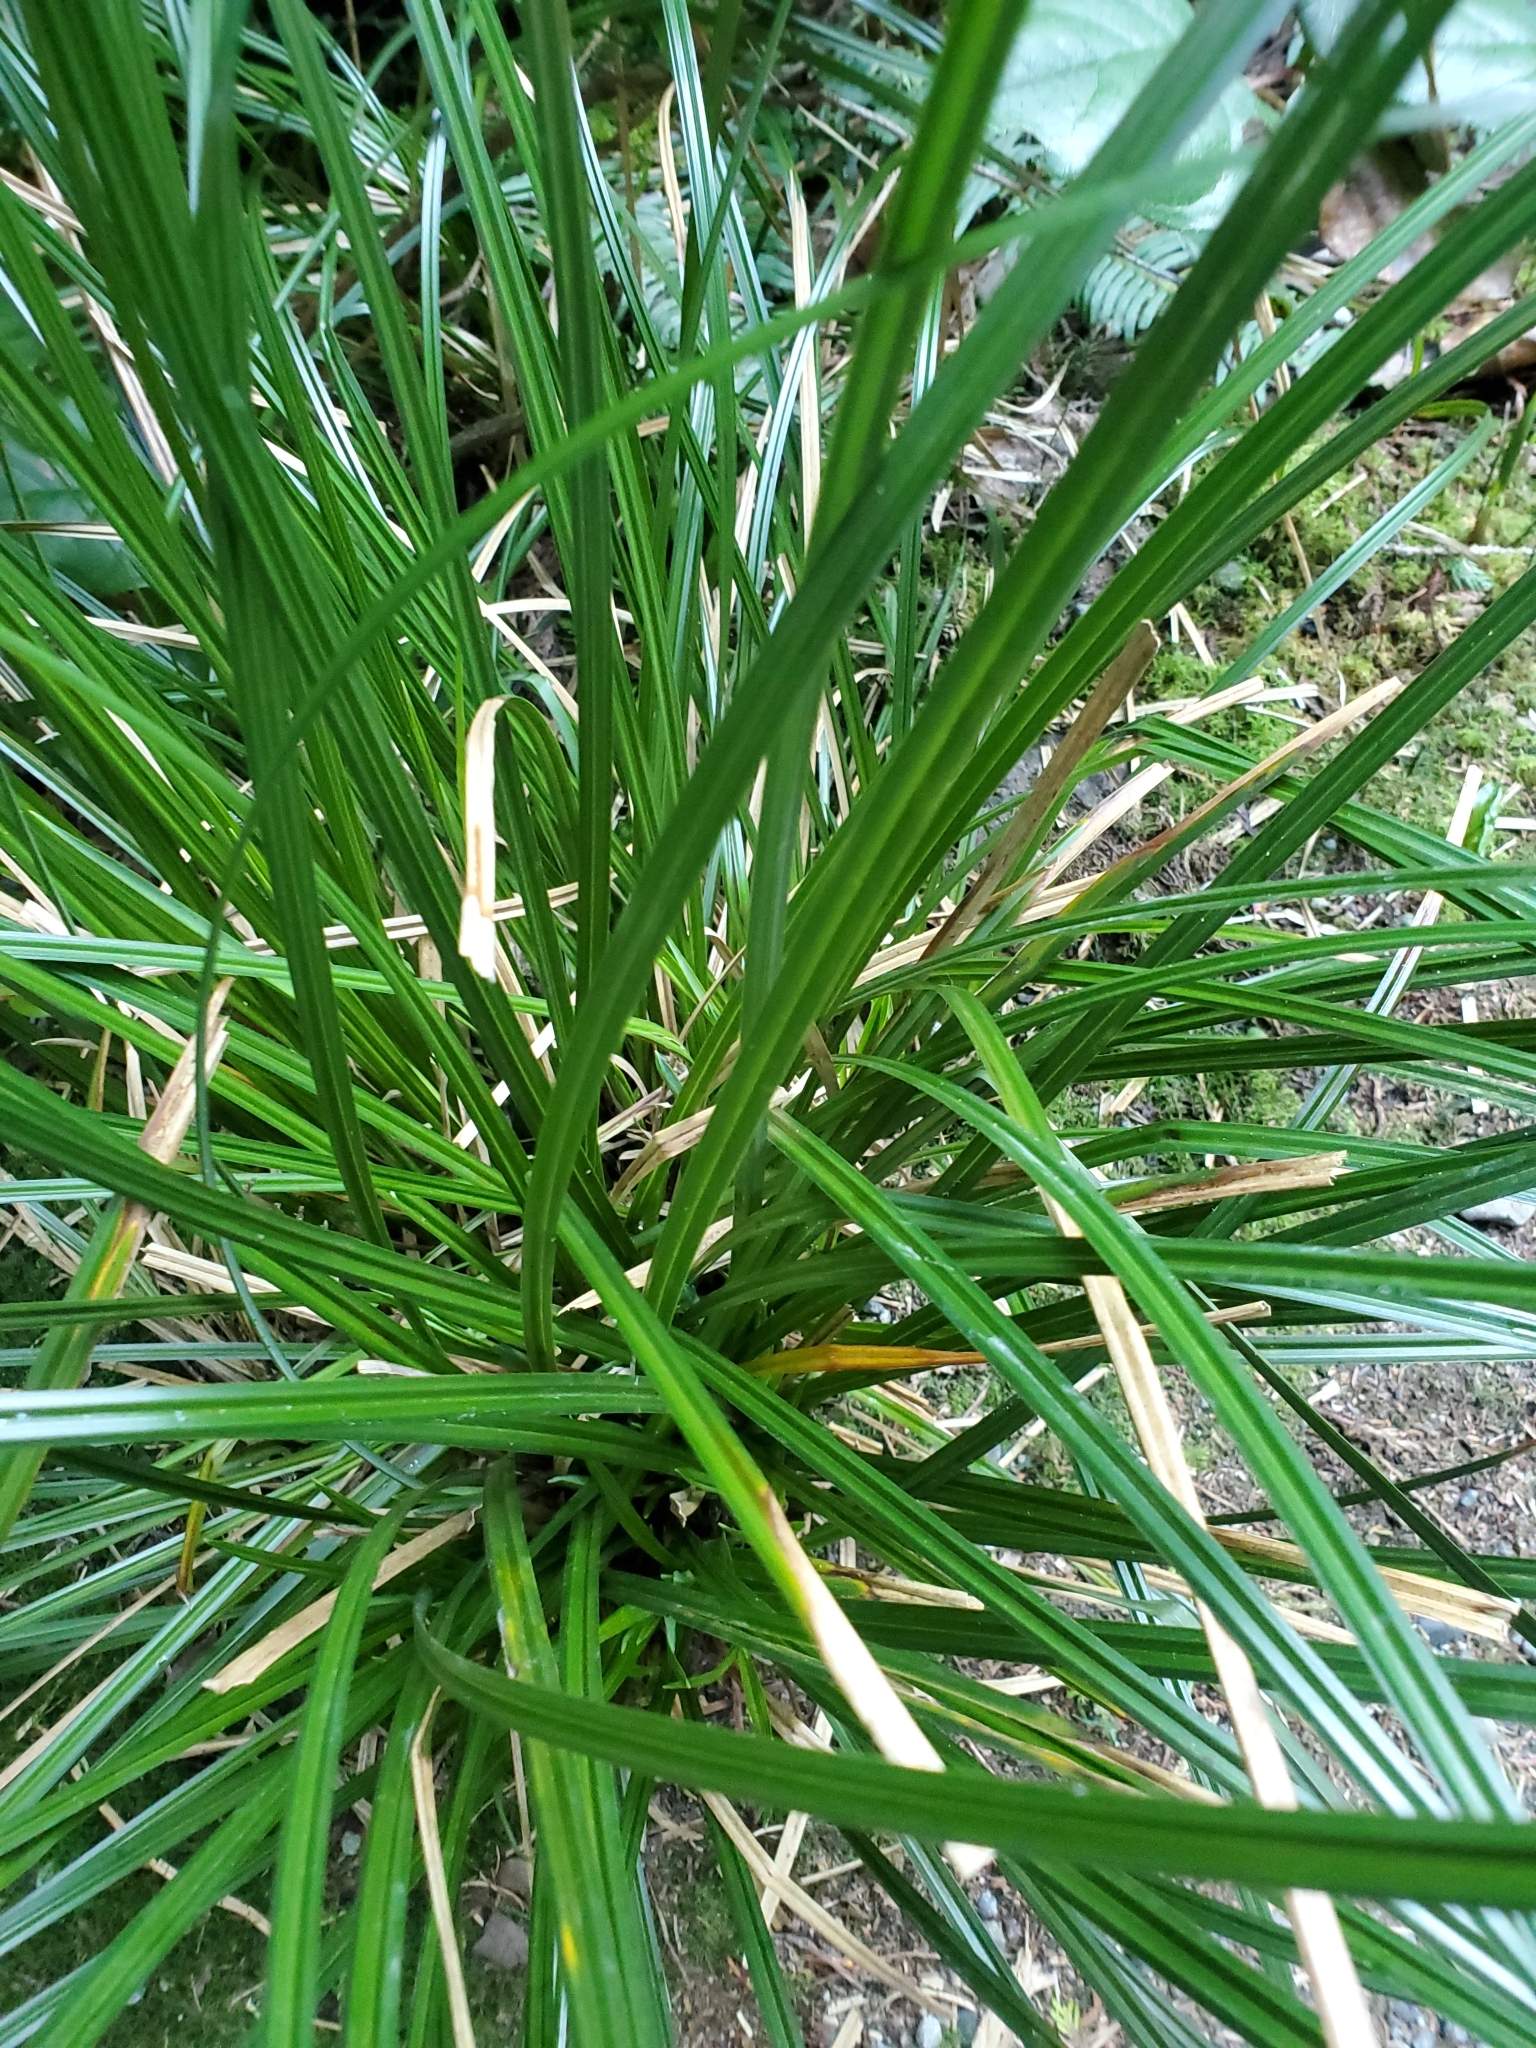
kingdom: Plantae
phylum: Tracheophyta
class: Liliopsida
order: Poales
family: Cyperaceae
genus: Carex
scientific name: Carex obnupta
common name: Slough sedge
